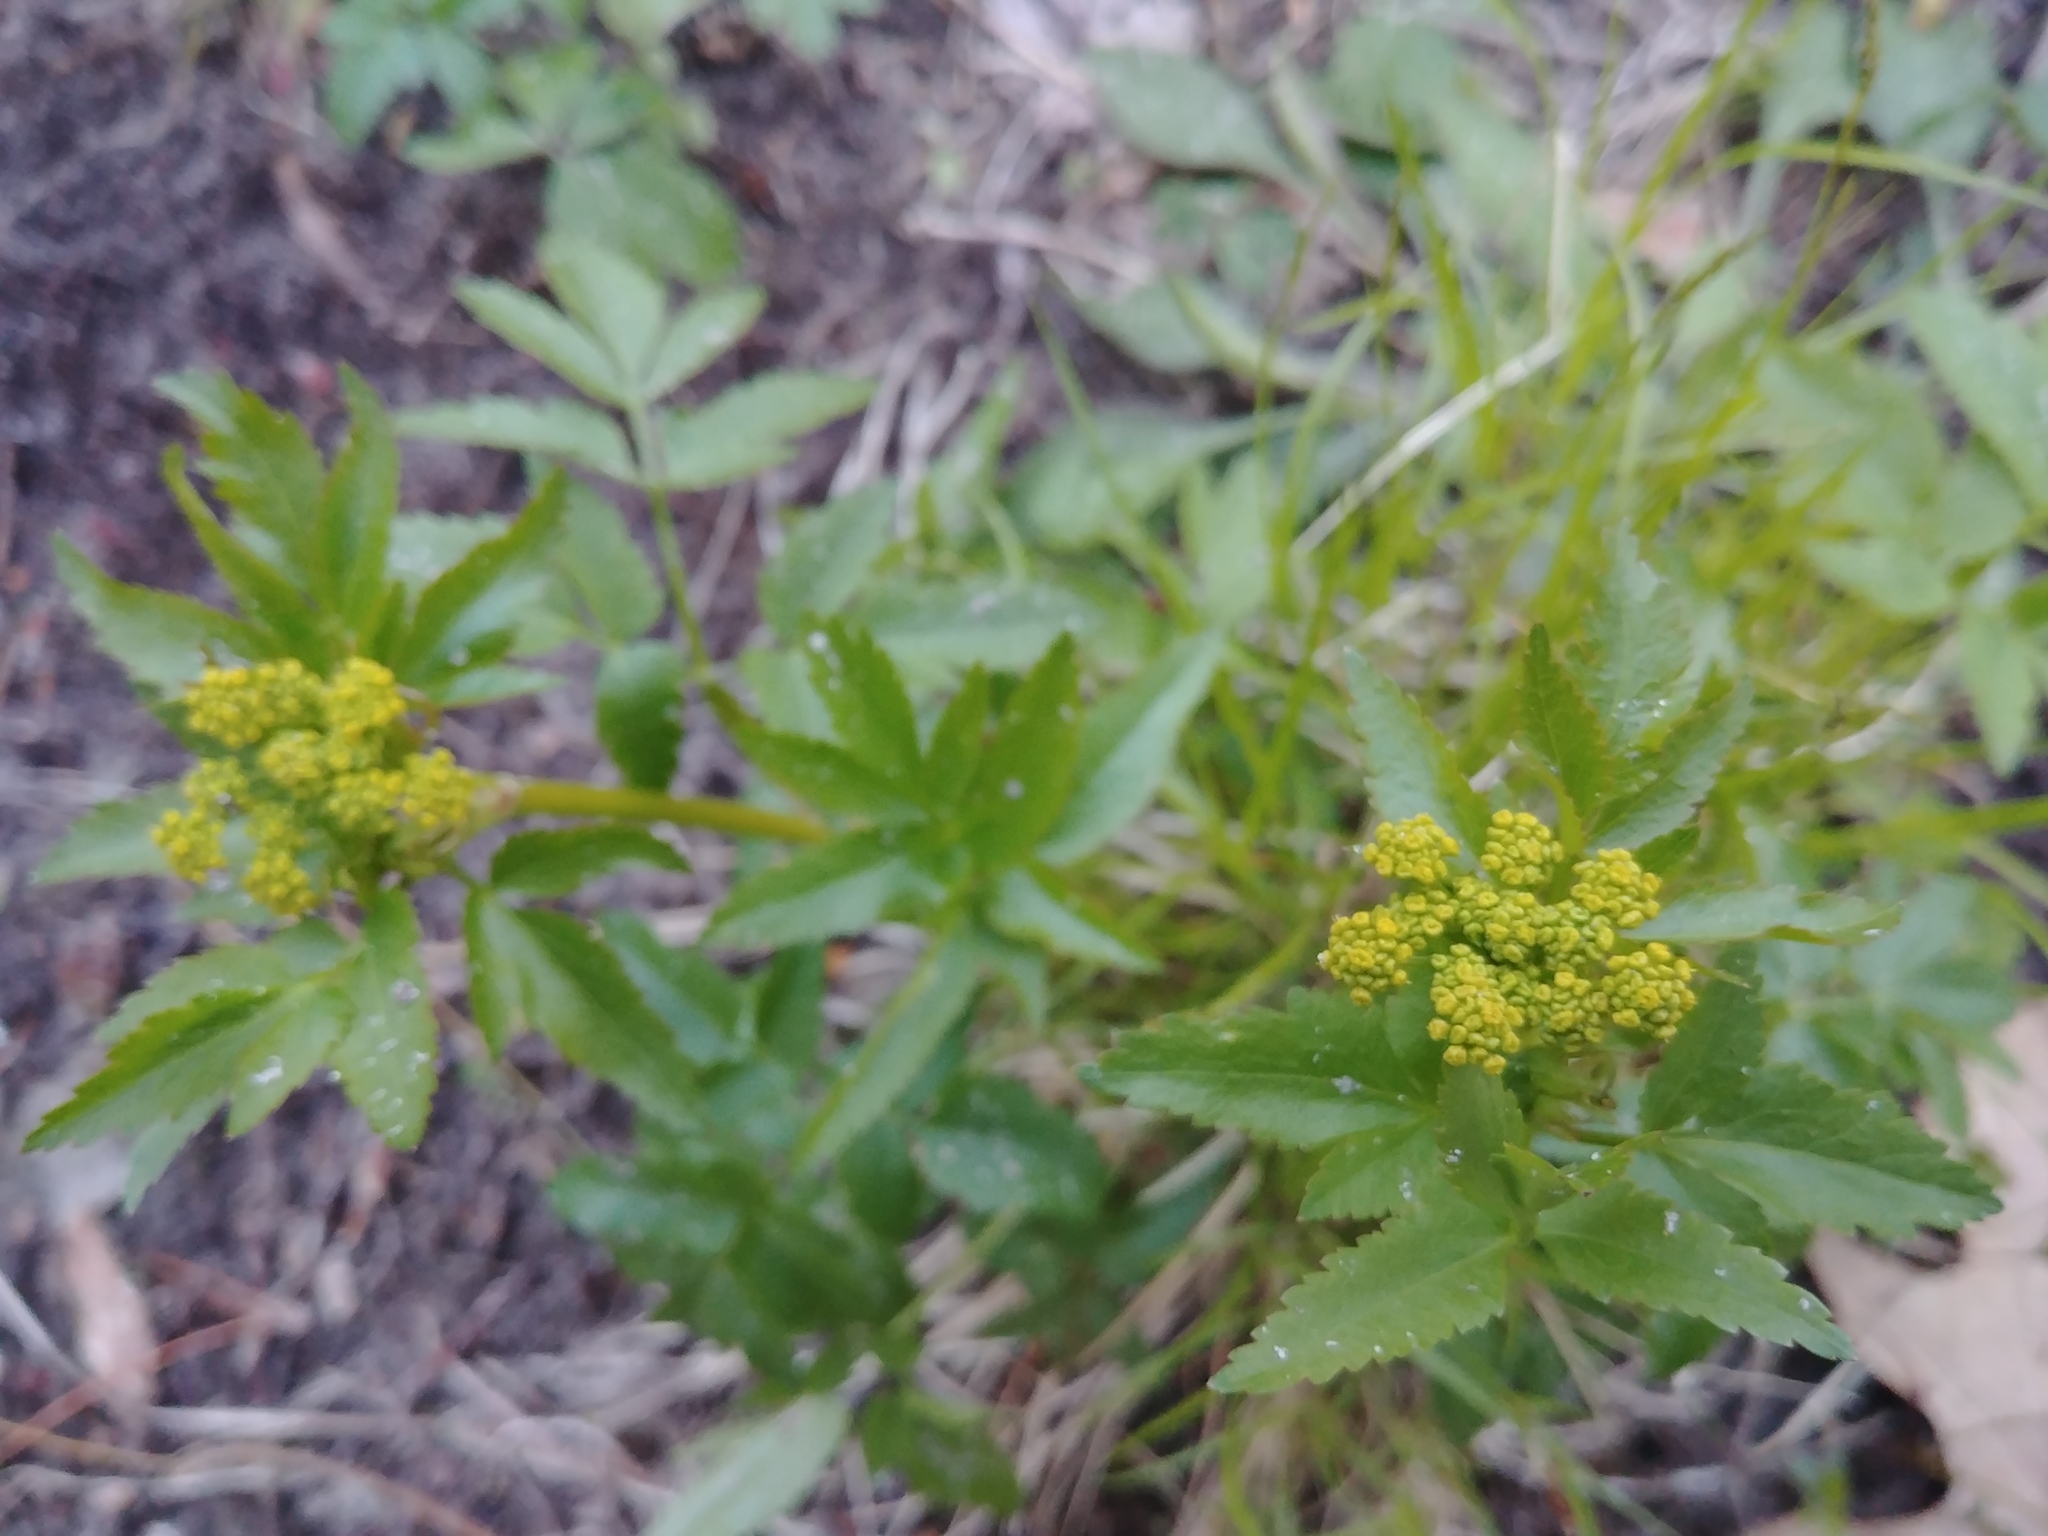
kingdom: Plantae
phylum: Tracheophyta
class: Magnoliopsida
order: Apiales
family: Apiaceae
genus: Zizia
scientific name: Zizia aurea
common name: Golden alexanders
